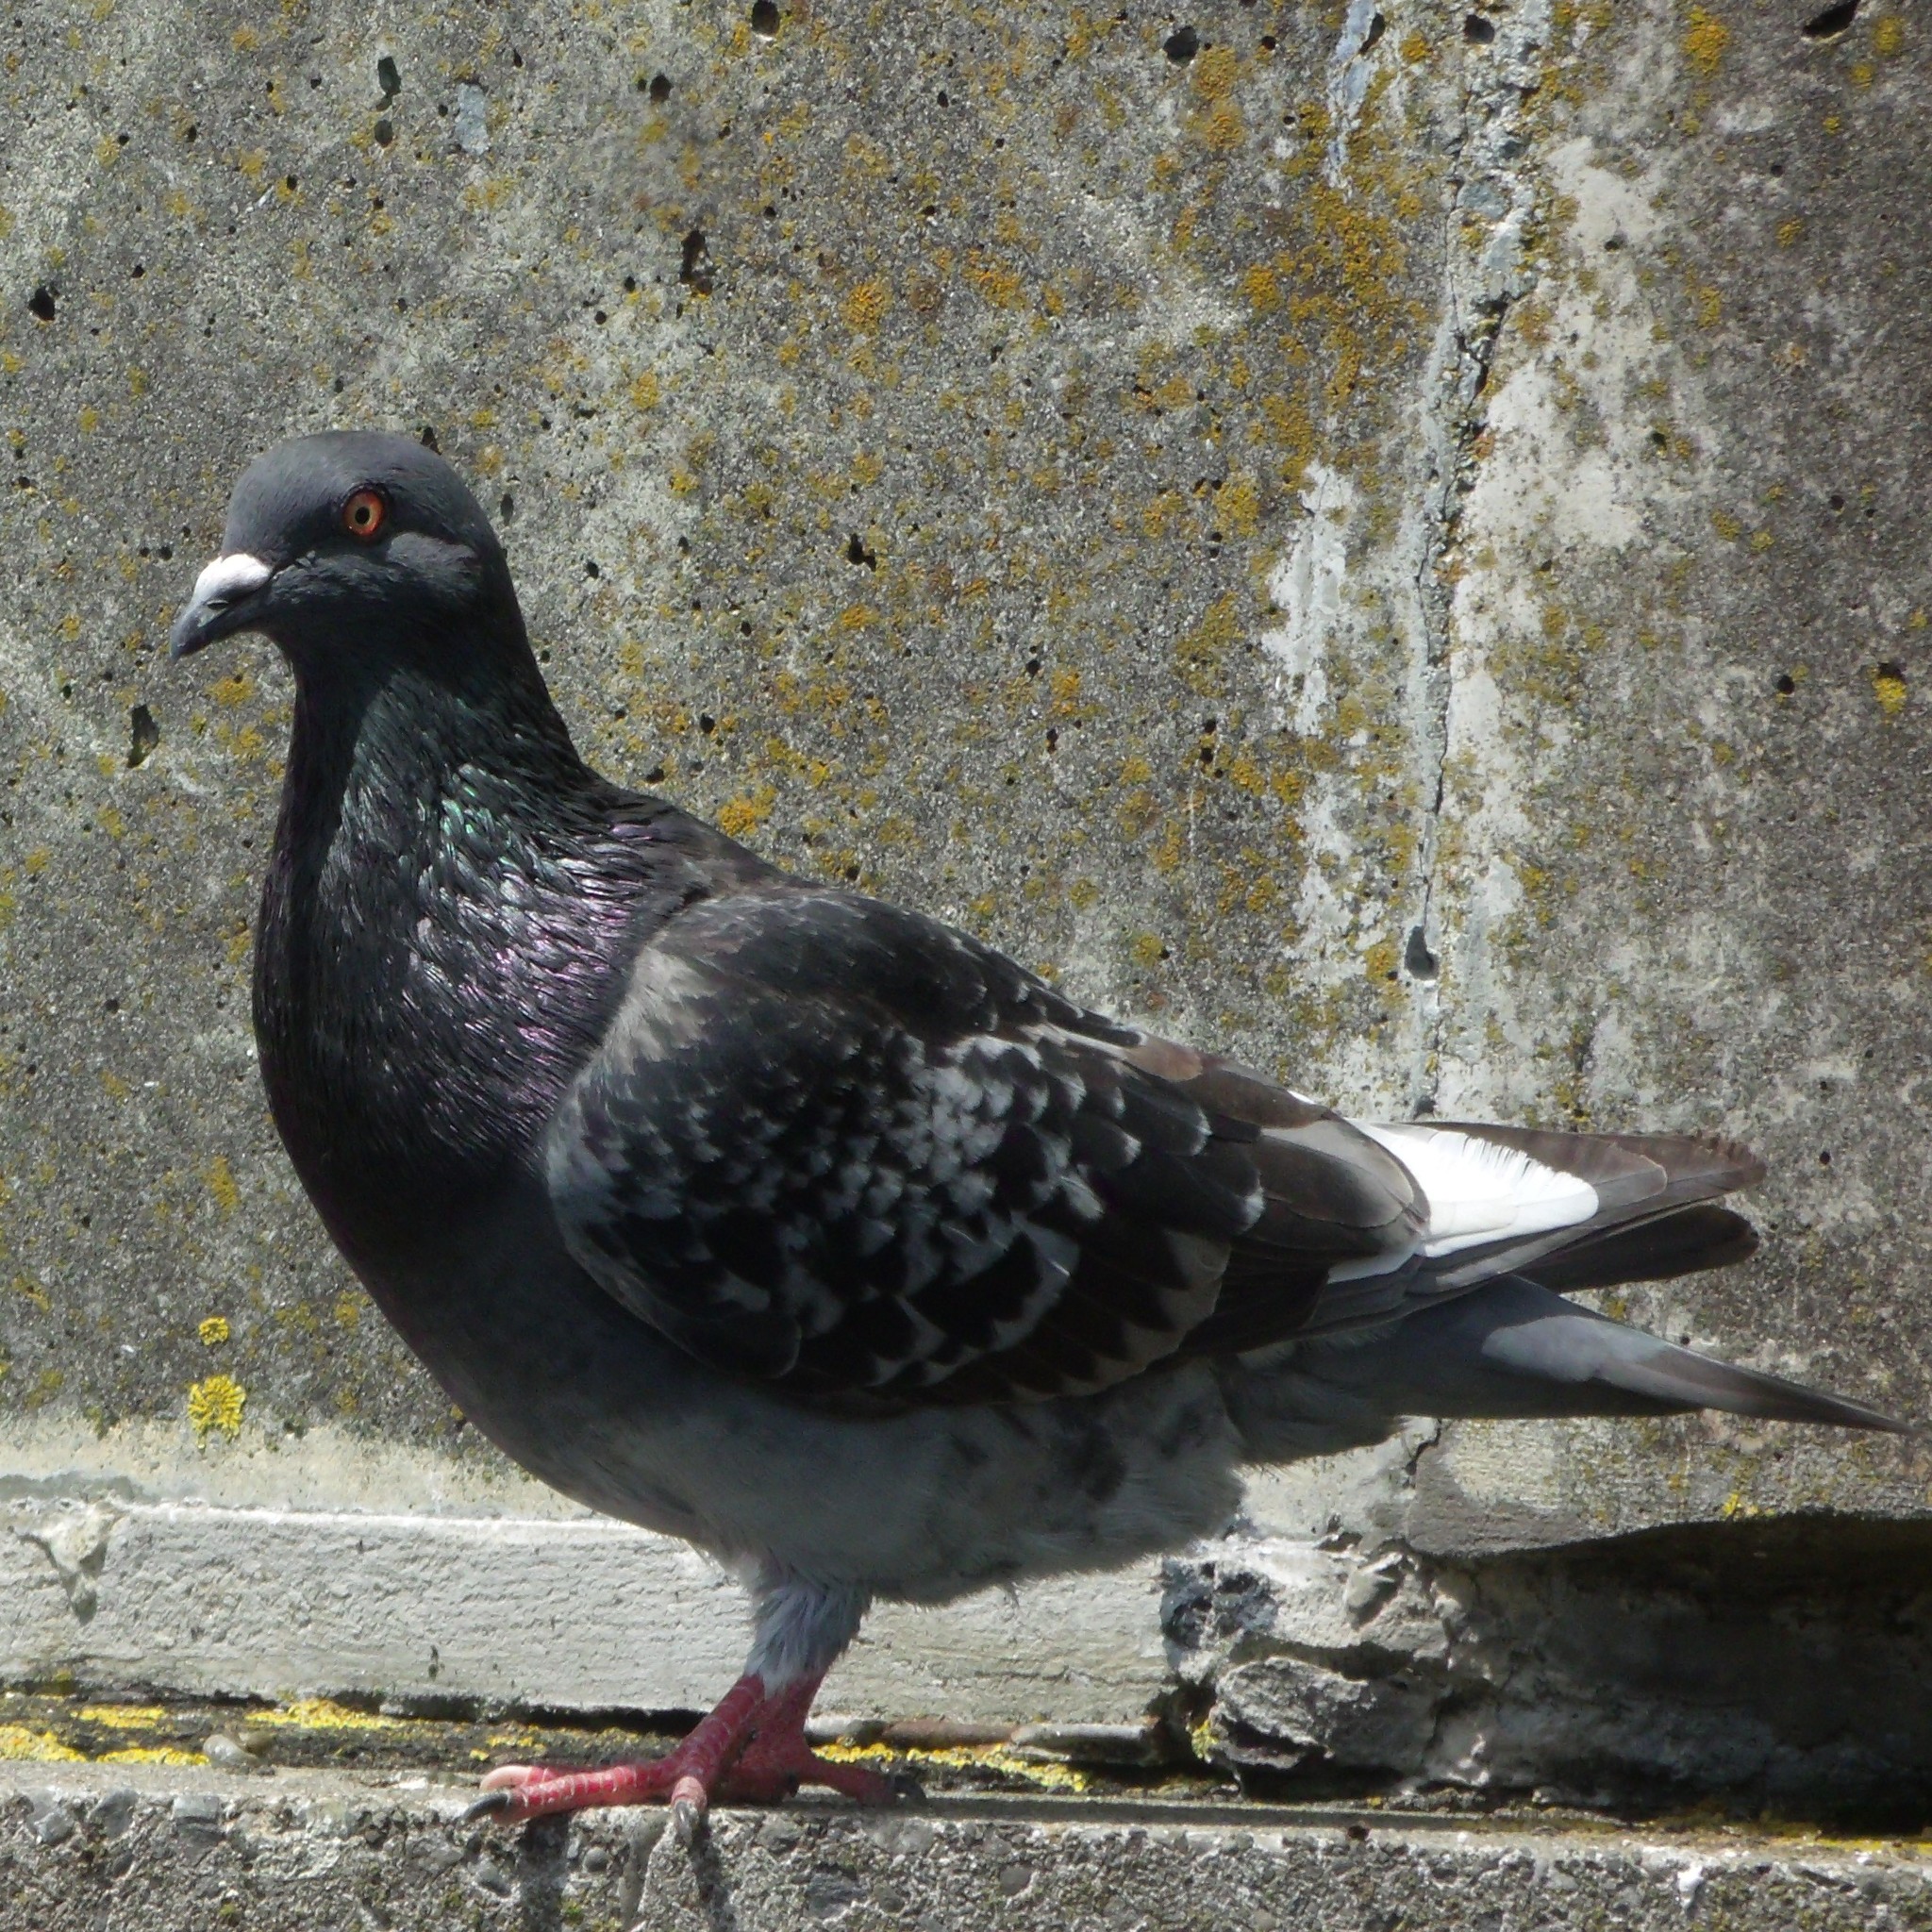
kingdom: Animalia
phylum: Chordata
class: Aves
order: Columbiformes
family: Columbidae
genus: Columba
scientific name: Columba livia
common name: Rock pigeon
